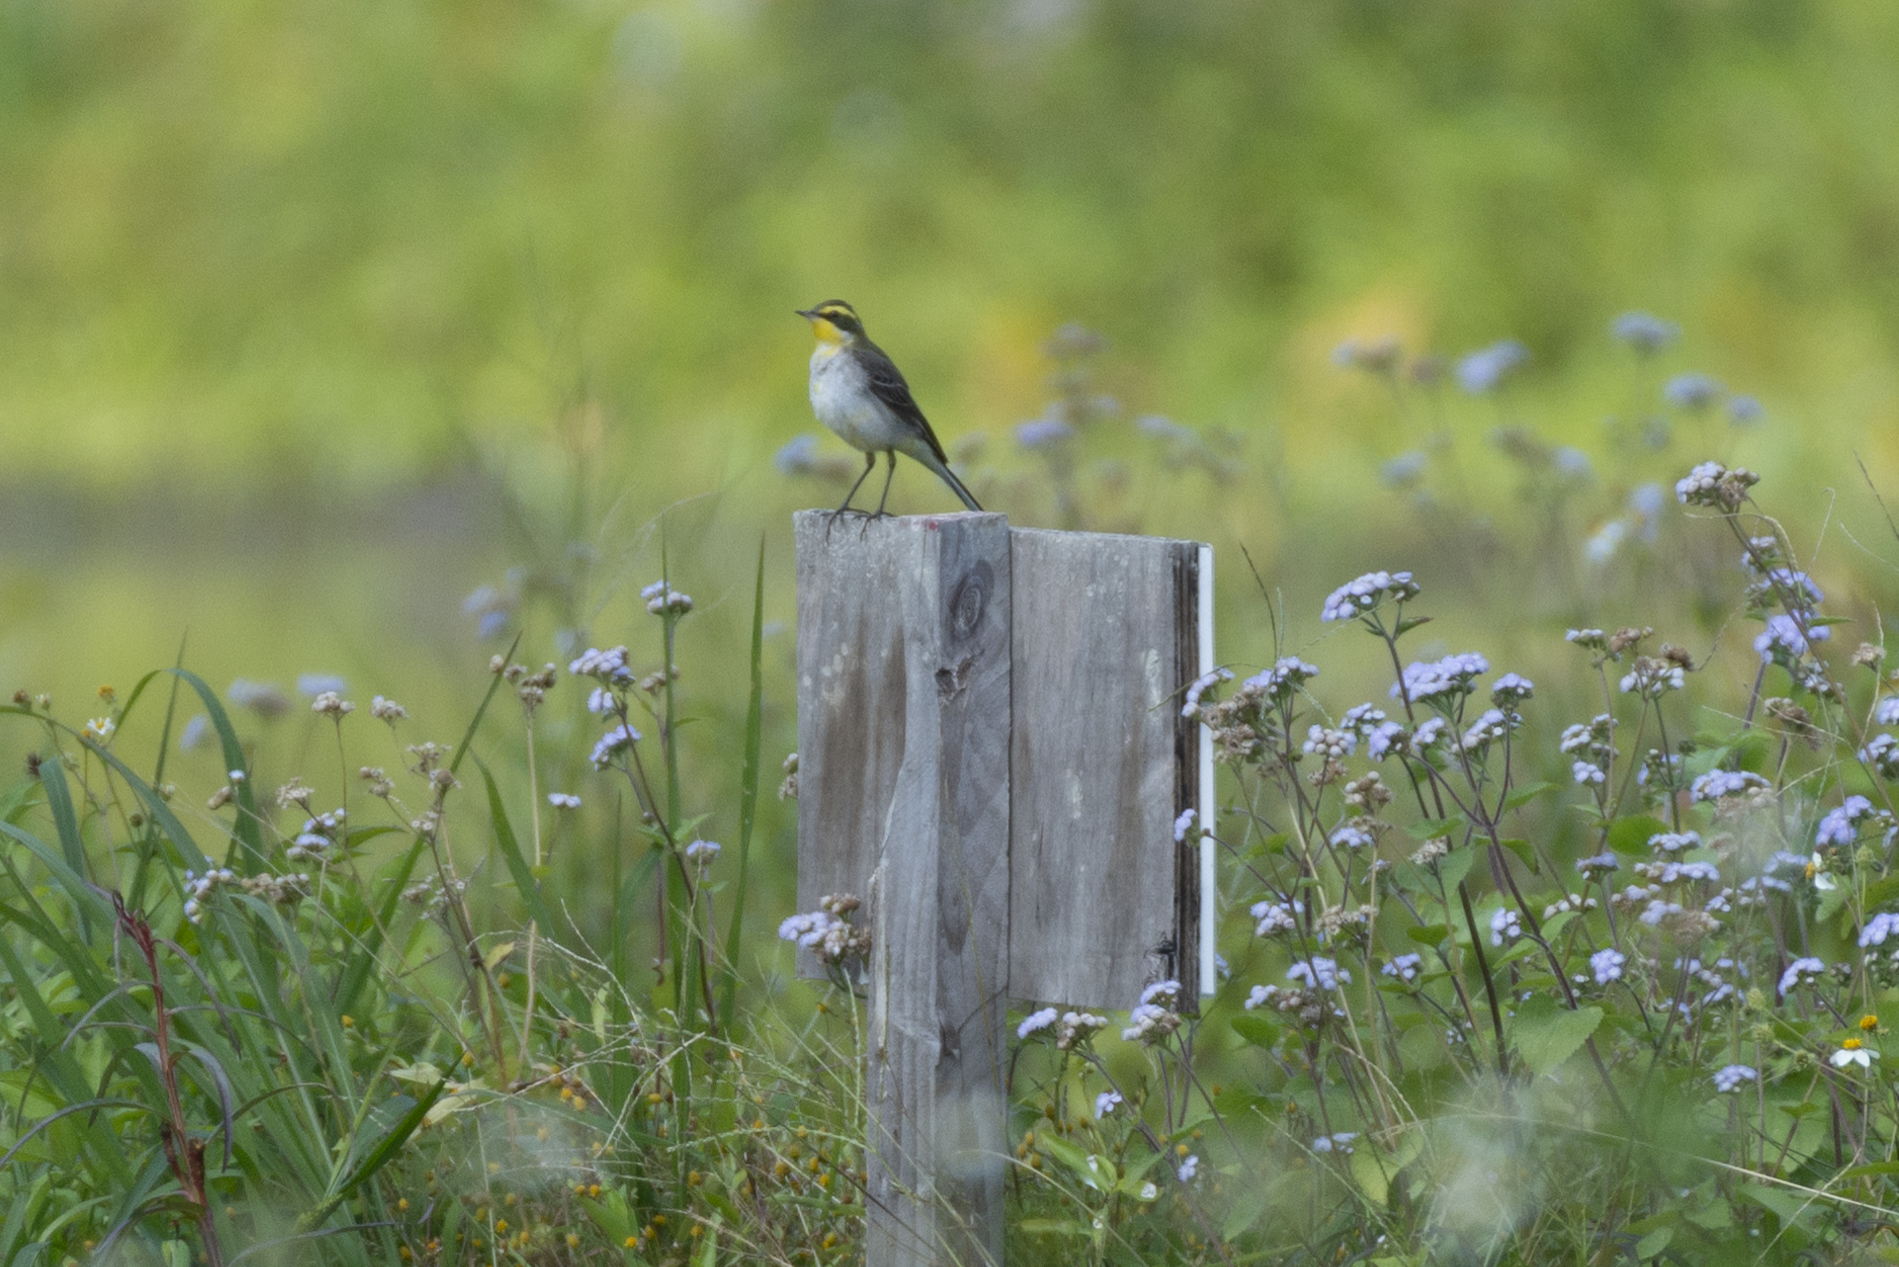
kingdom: Animalia
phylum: Chordata
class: Aves
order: Passeriformes
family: Motacillidae
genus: Motacilla
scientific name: Motacilla tschutschensis
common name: Eastern yellow wagtail
